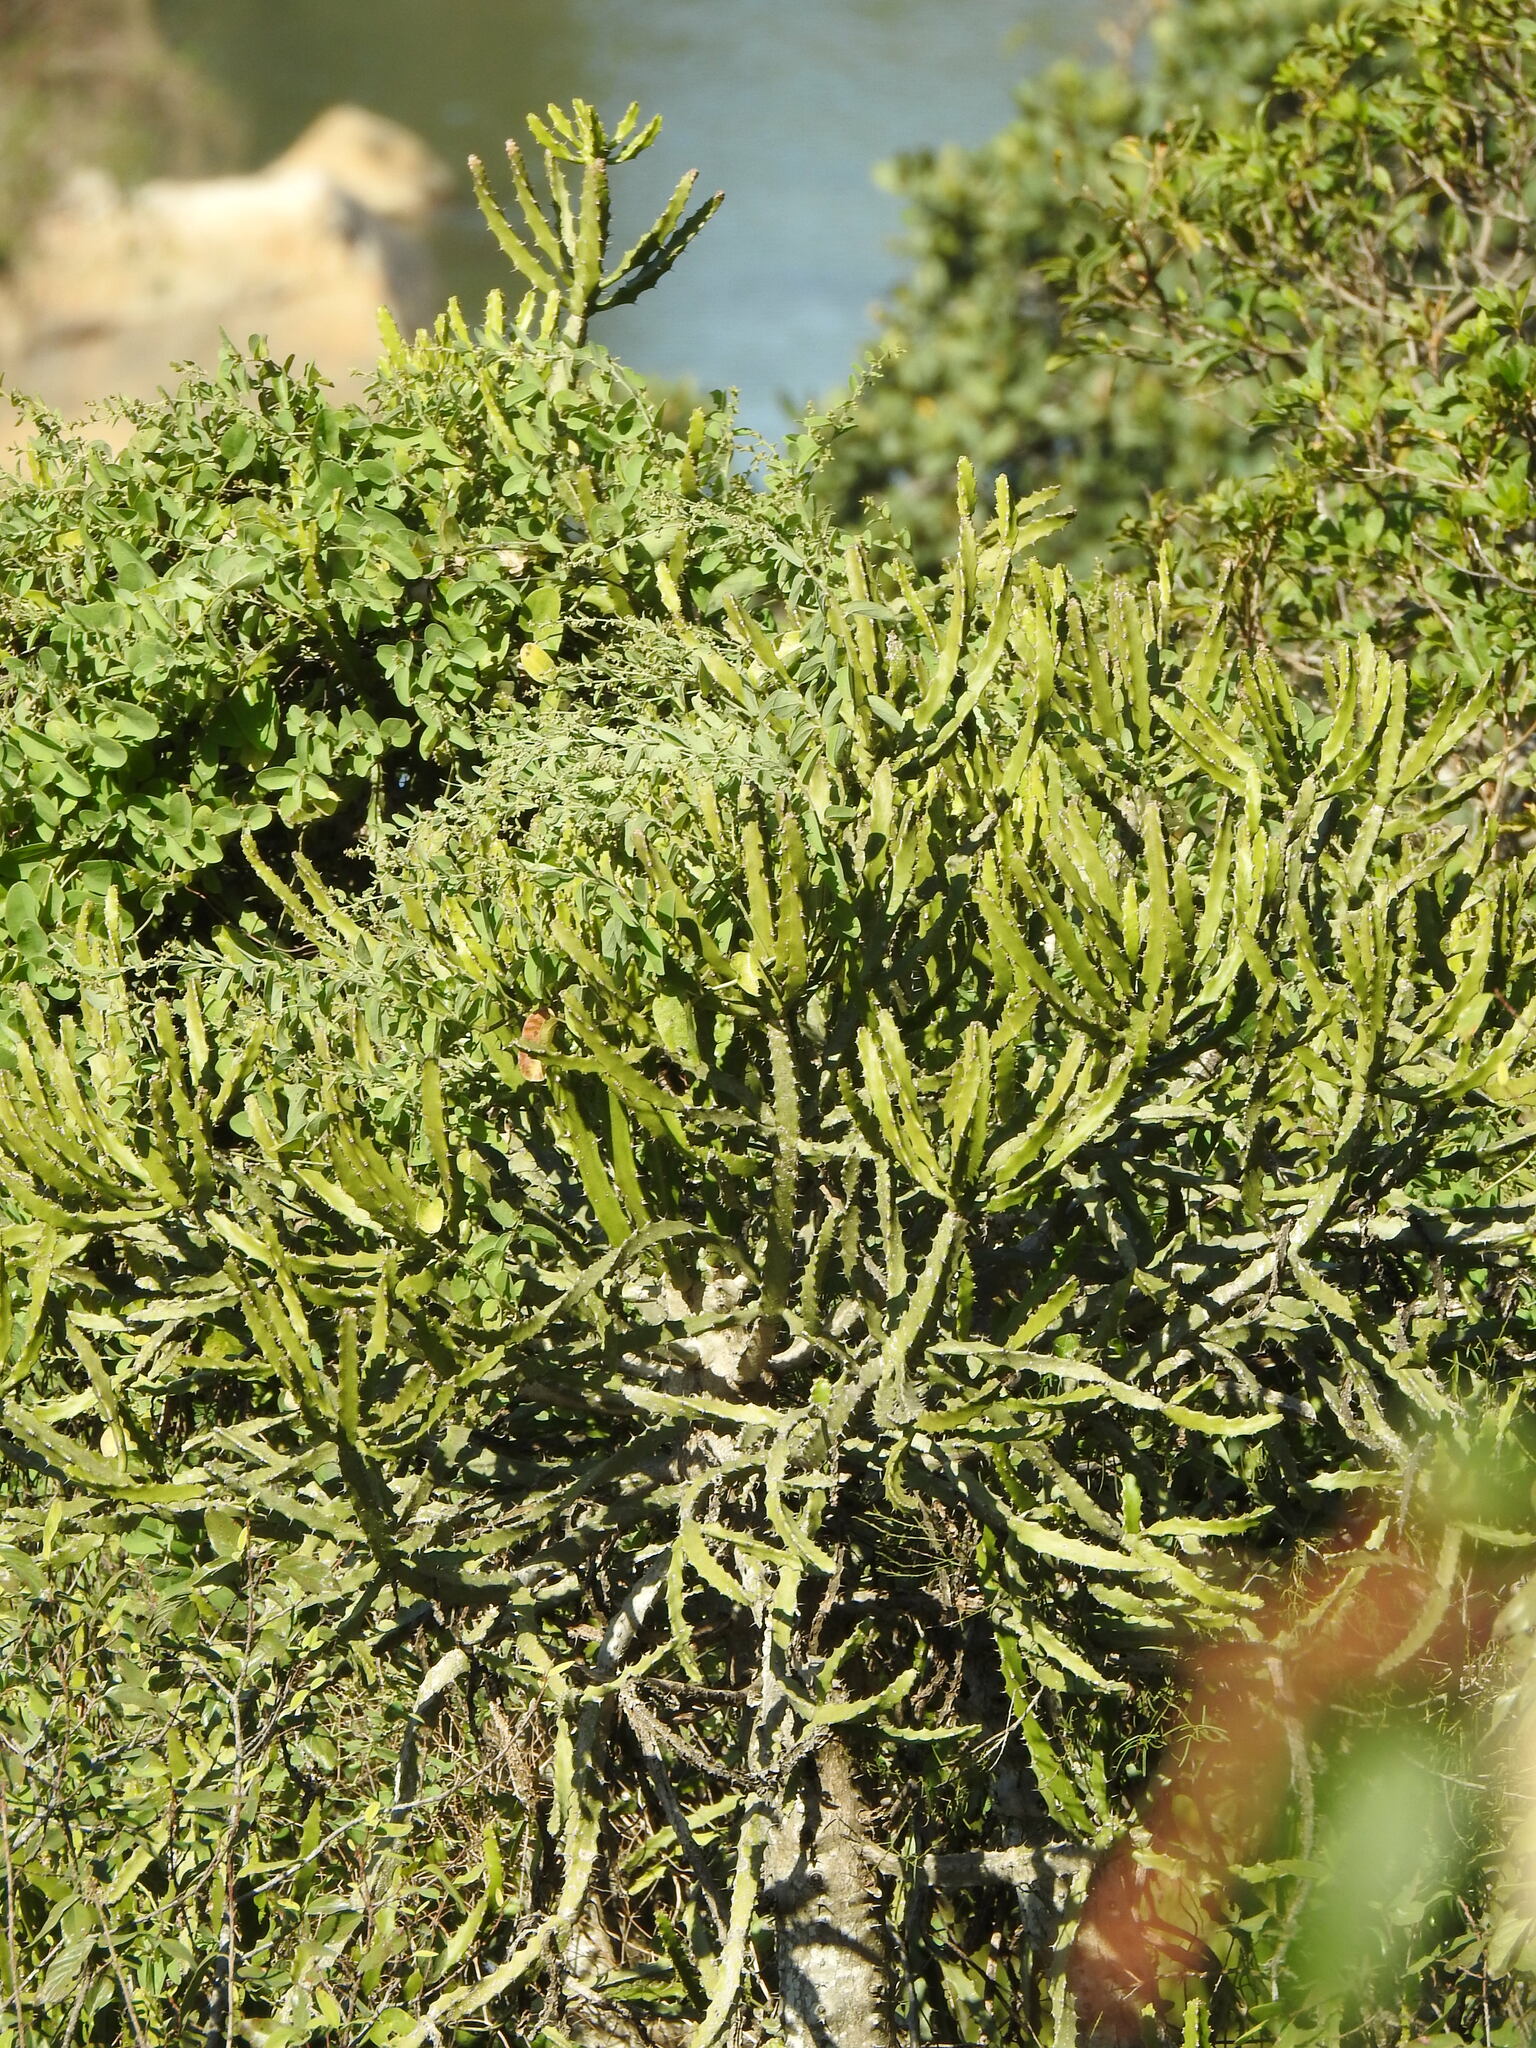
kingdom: Plantae
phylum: Tracheophyta
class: Magnoliopsida
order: Malpighiales
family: Euphorbiaceae
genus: Euphorbia
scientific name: Euphorbia grandidens
